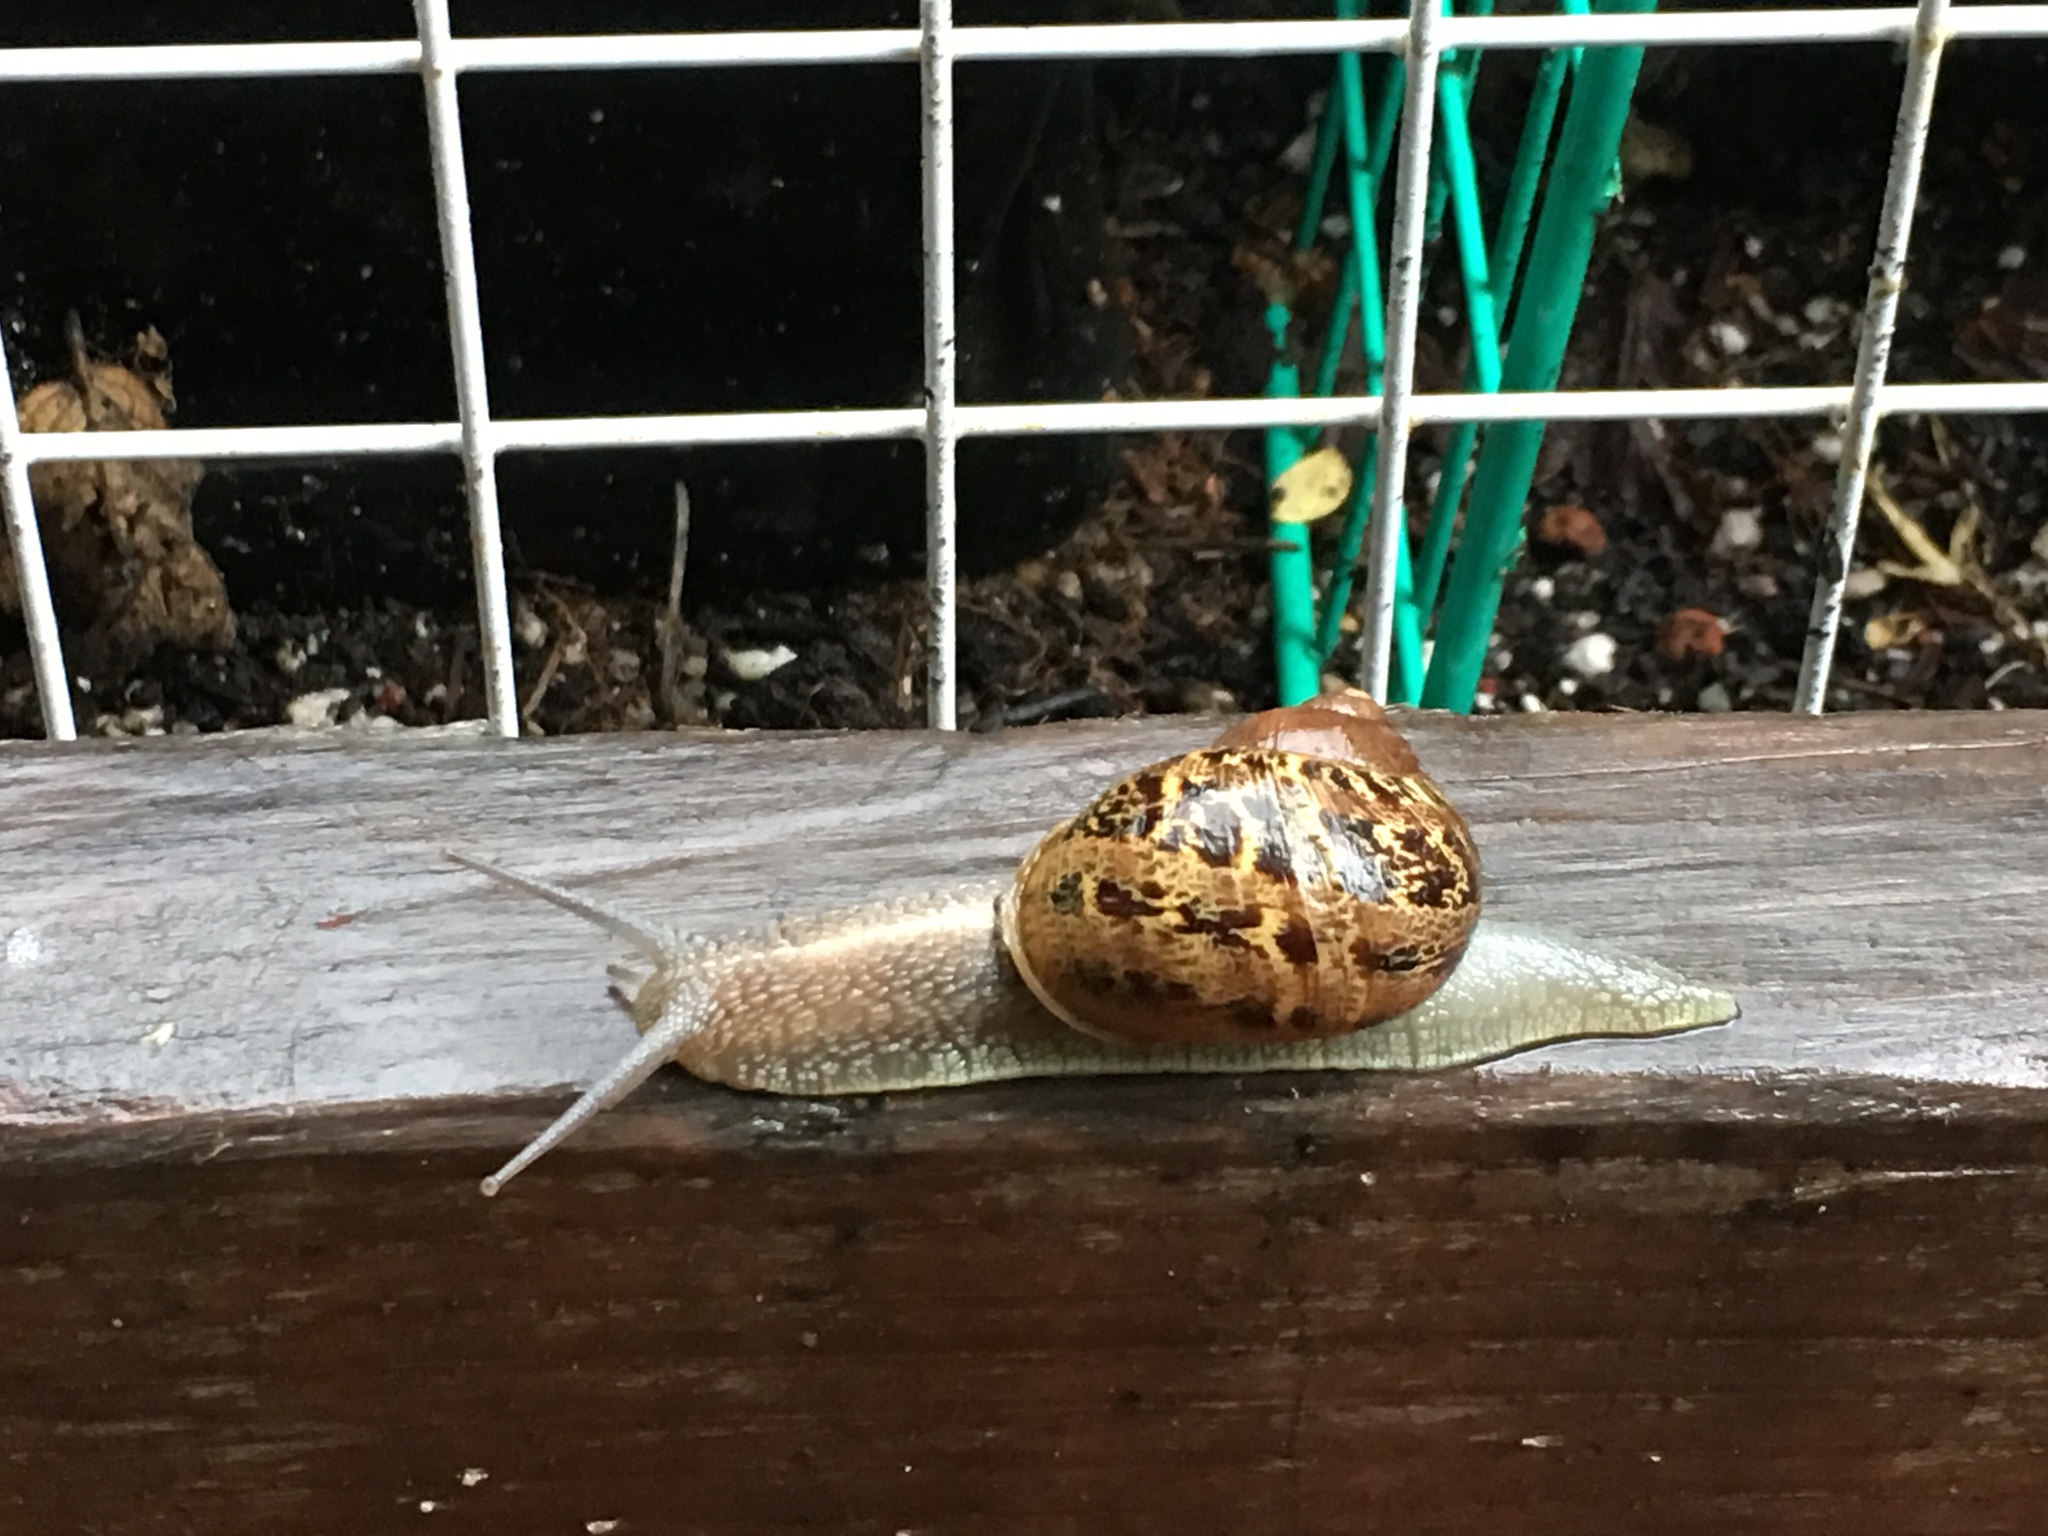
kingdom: Animalia
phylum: Mollusca
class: Gastropoda
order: Stylommatophora
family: Helicidae
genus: Cornu
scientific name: Cornu aspersum
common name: Brown garden snail
